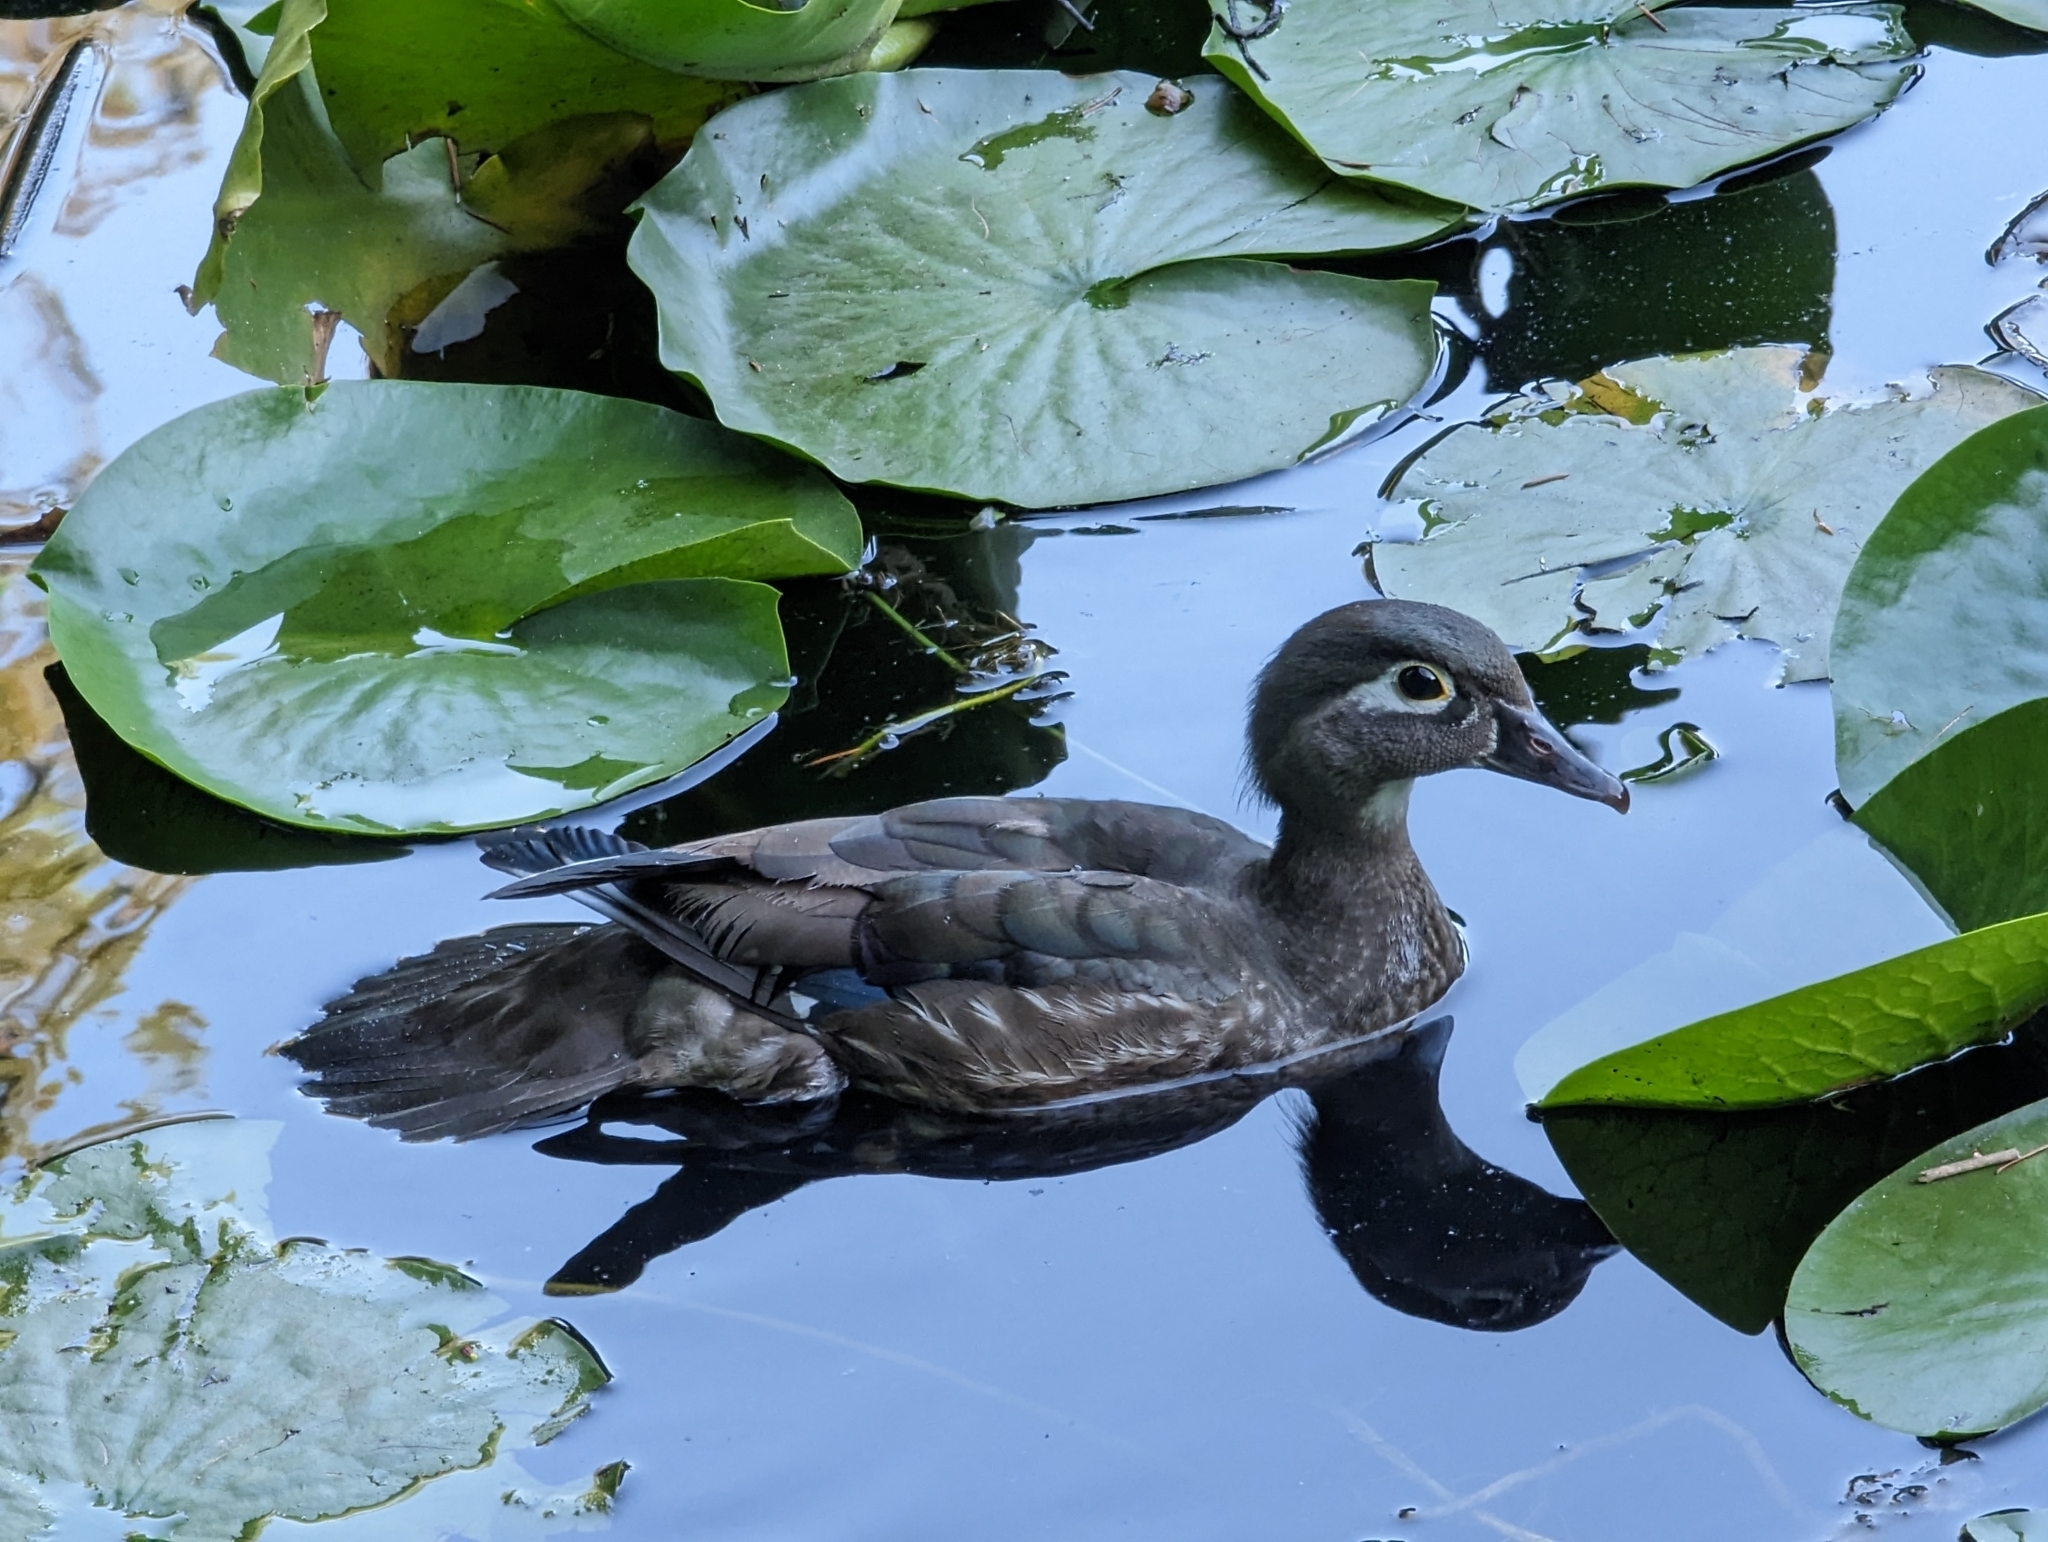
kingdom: Animalia
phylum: Chordata
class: Aves
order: Anseriformes
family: Anatidae
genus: Aix
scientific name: Aix sponsa
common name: Wood duck
